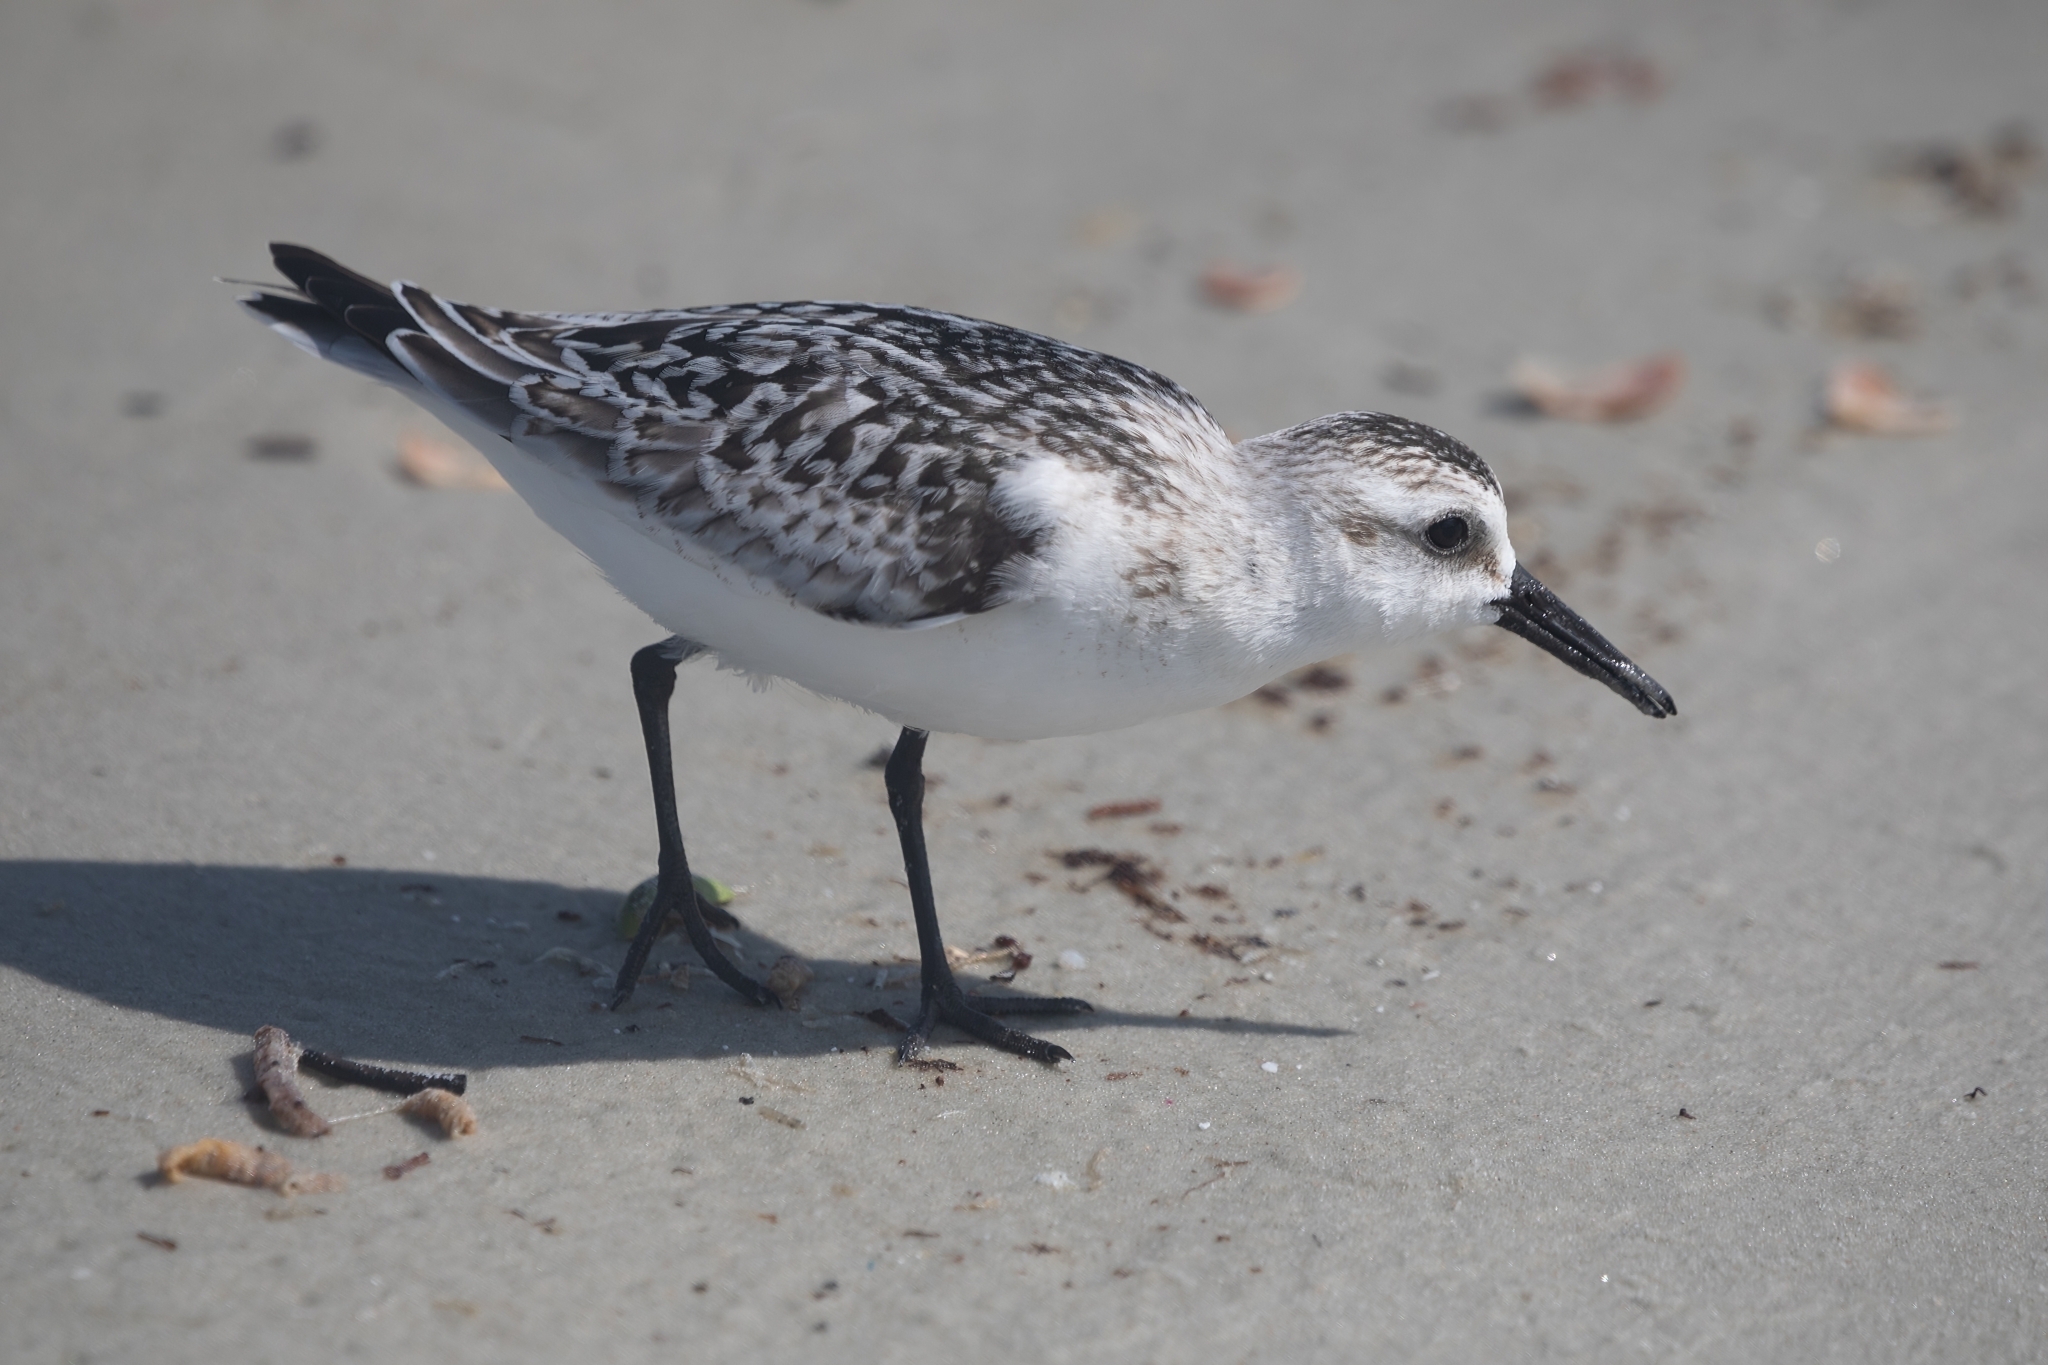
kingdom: Animalia
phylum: Chordata
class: Aves
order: Charadriiformes
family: Scolopacidae
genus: Calidris
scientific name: Calidris alba
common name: Sanderling
